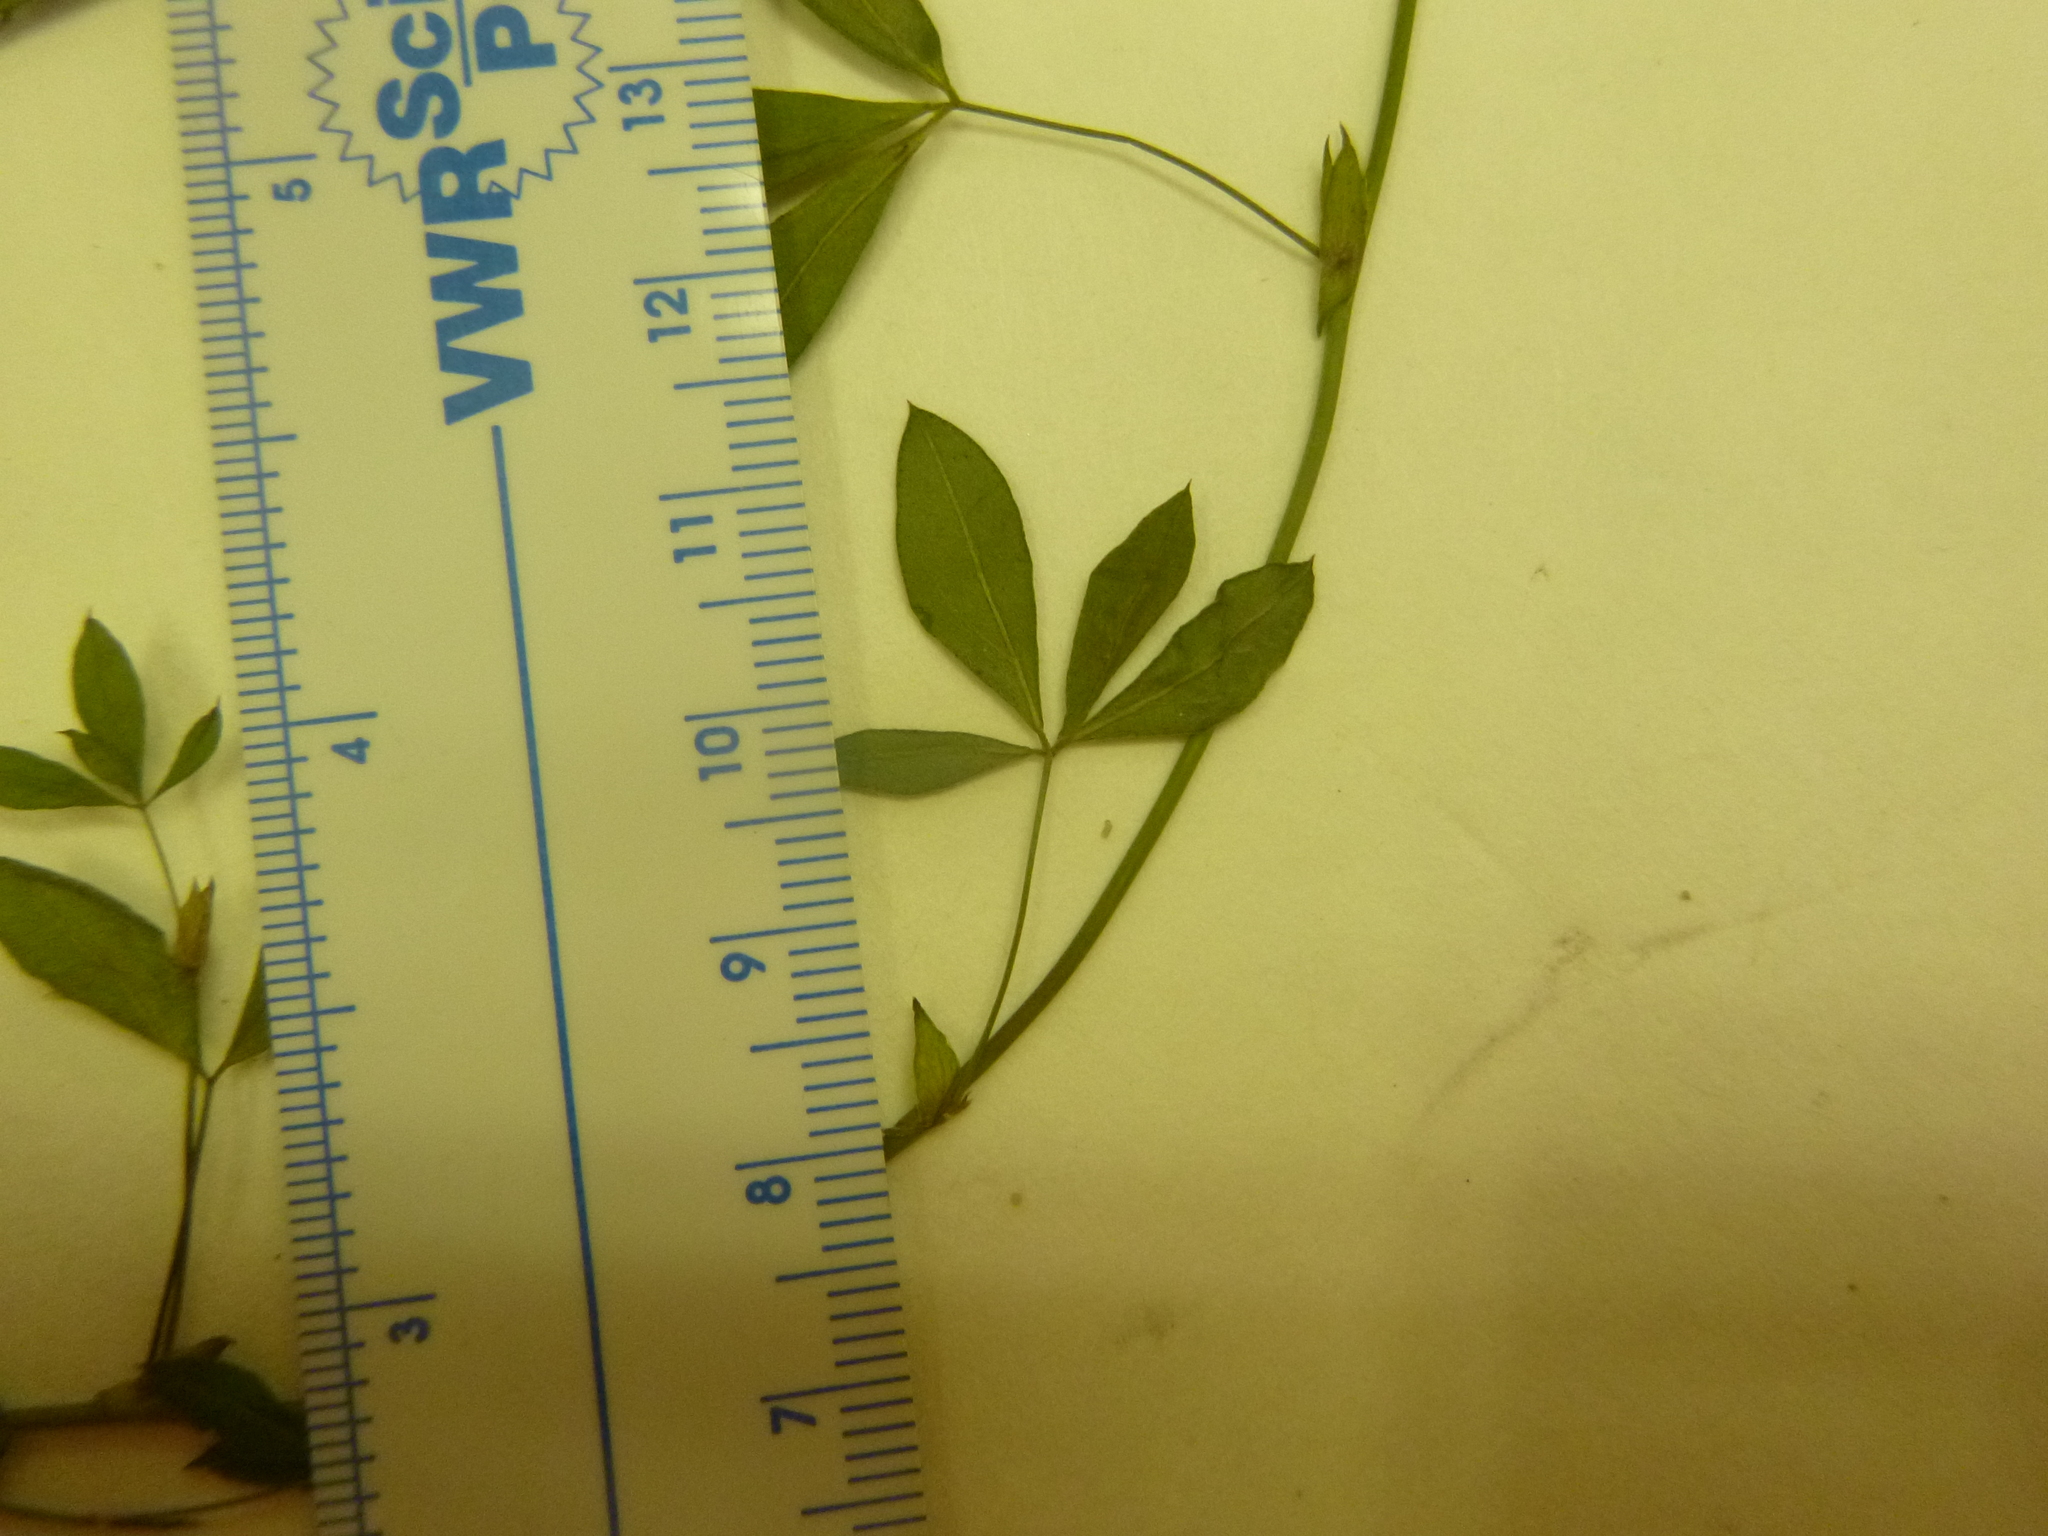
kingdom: Plantae
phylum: Tracheophyta
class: Magnoliopsida
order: Fabales
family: Fabaceae
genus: Zornia
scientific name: Zornia bracteata
